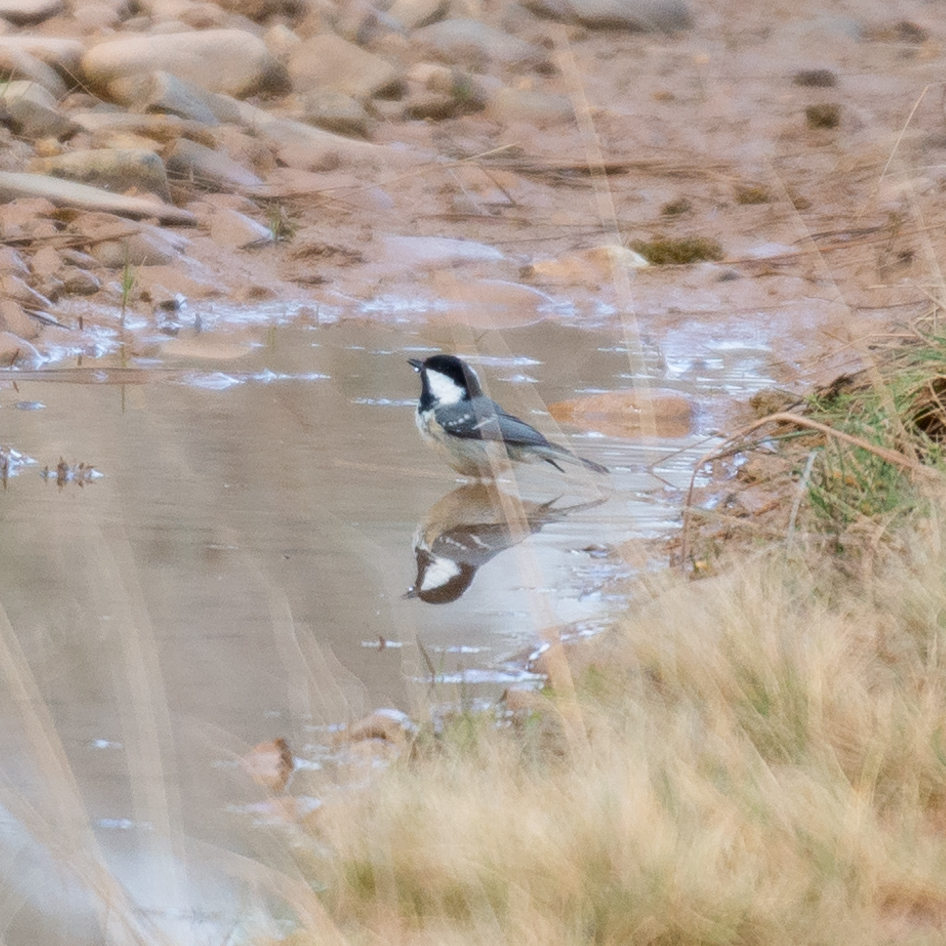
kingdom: Animalia
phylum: Chordata
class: Aves
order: Passeriformes
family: Paridae
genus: Periparus
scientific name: Periparus ater
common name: Coal tit
